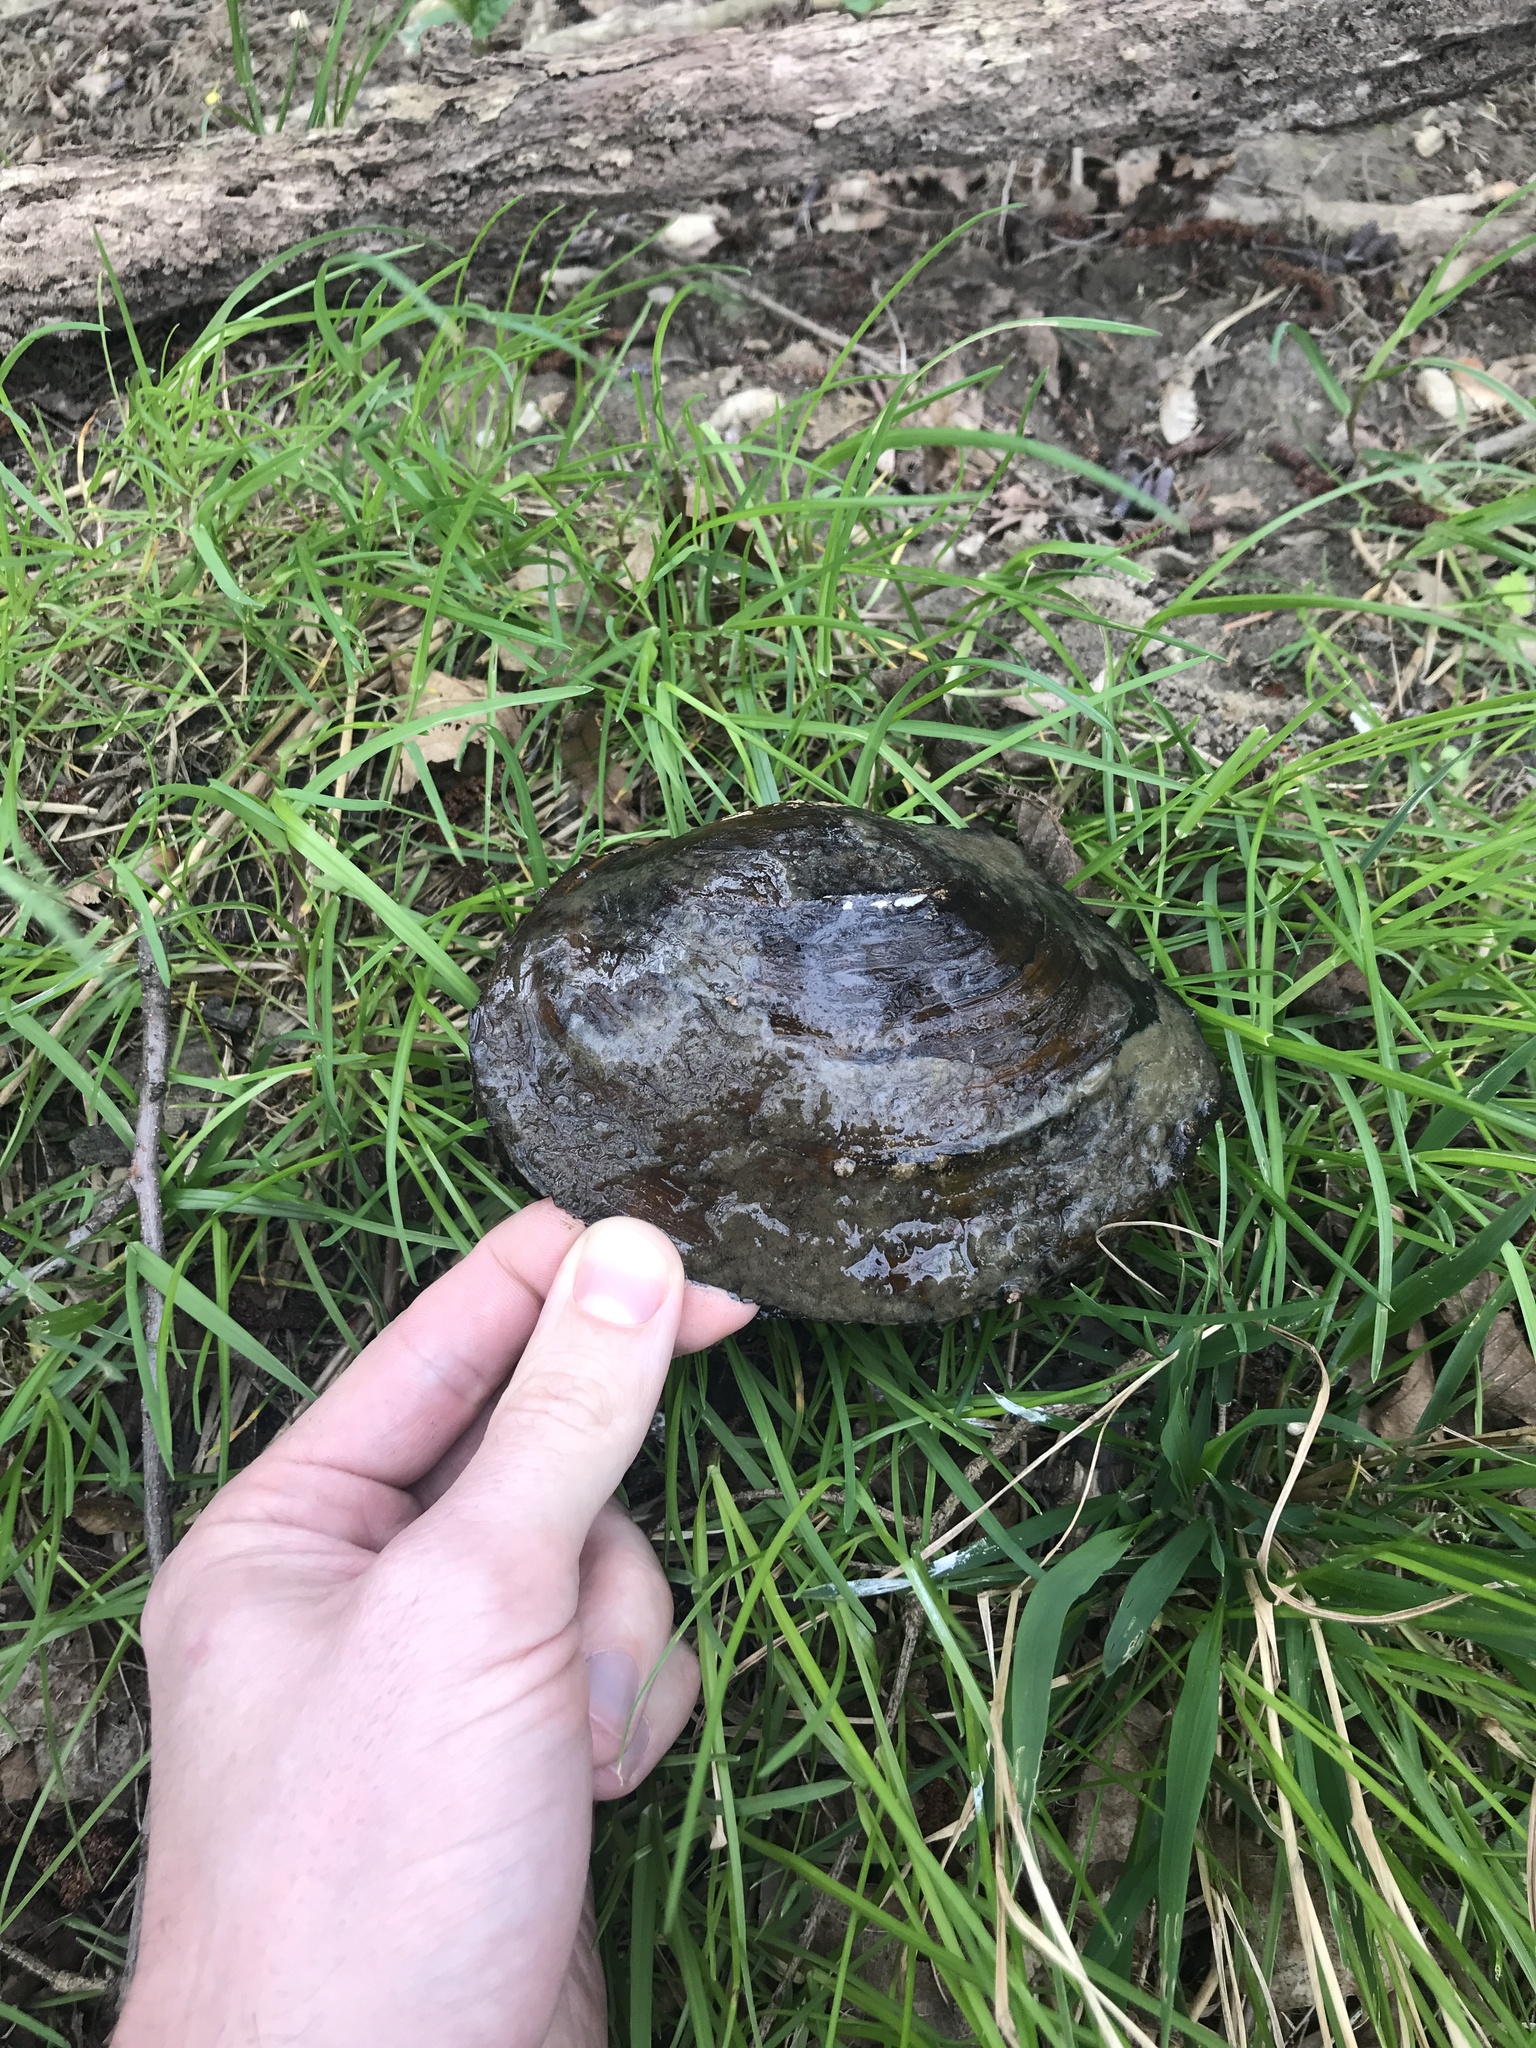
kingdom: Animalia
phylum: Mollusca
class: Bivalvia
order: Unionida
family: Unionidae
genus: Sinanodonta
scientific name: Sinanodonta woodiana
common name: Chinese pond mussel
